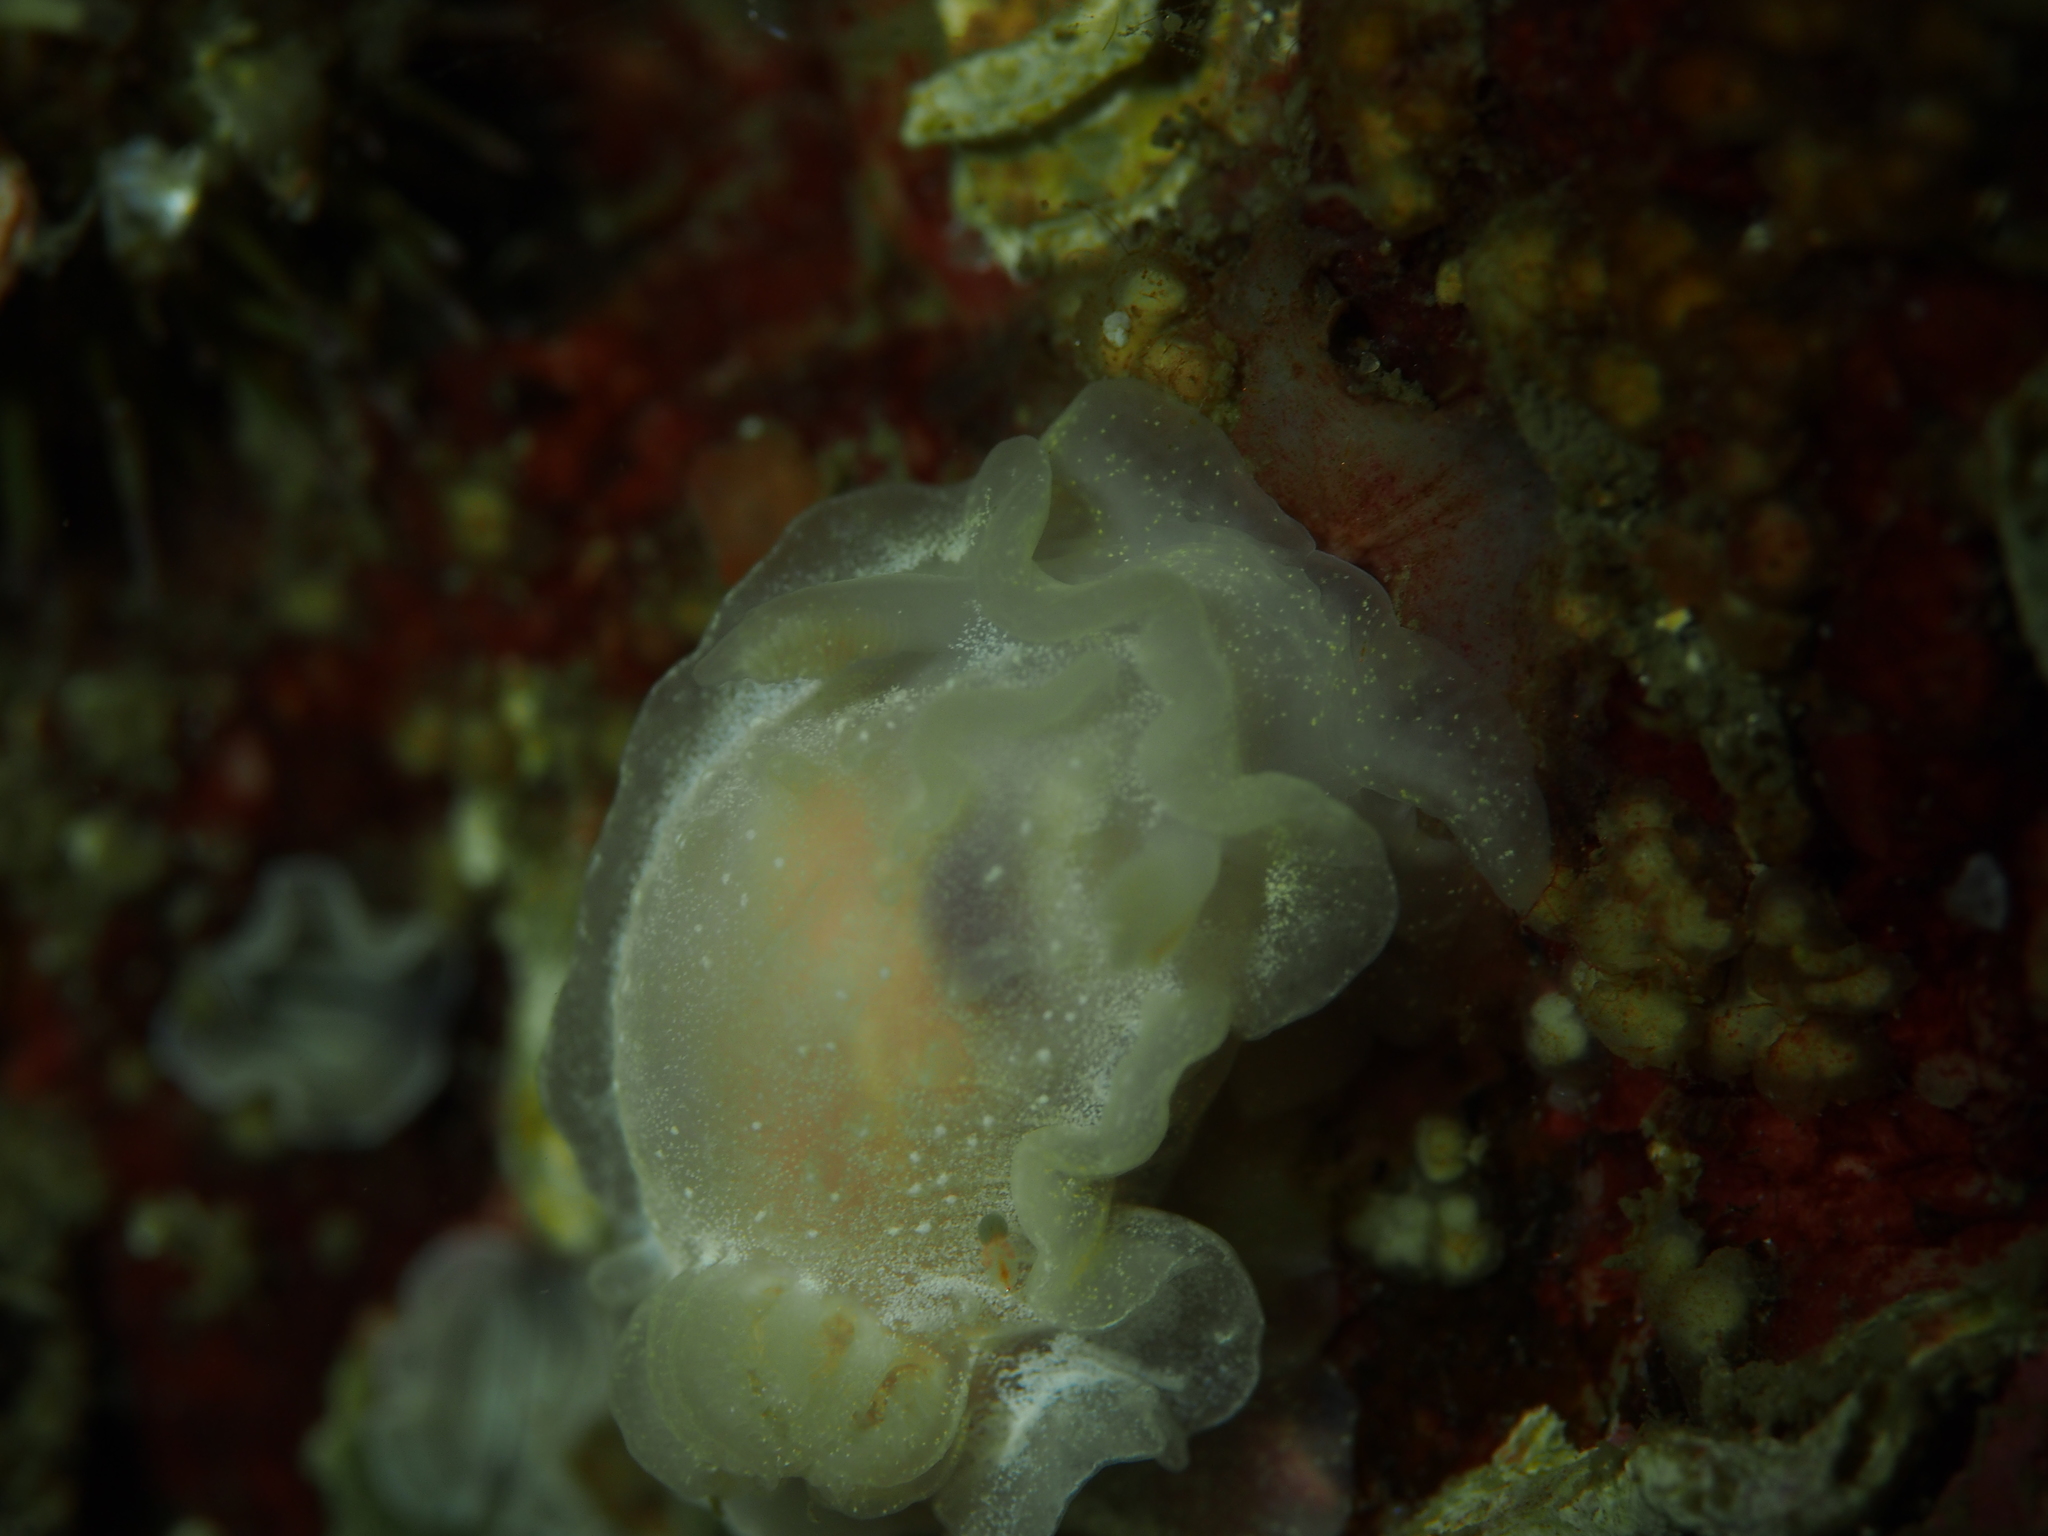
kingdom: Animalia
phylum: Mollusca
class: Gastropoda
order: Nudibranchia
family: Goniodorididae
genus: Okenia
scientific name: Okenia
